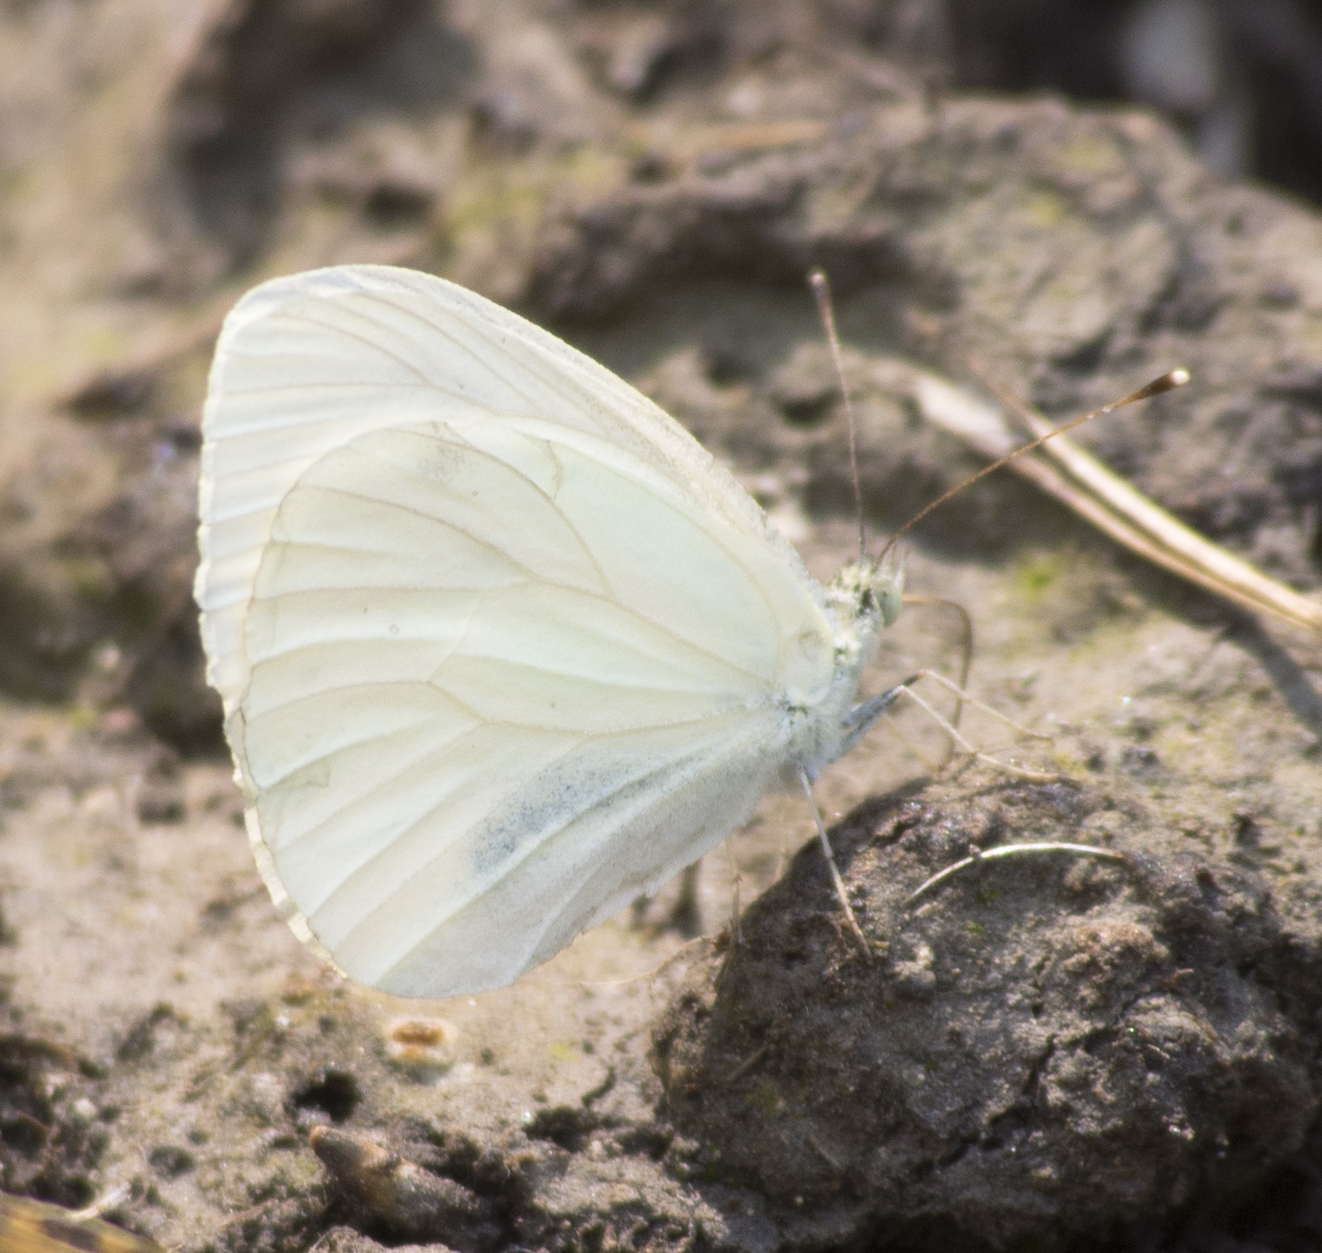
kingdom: Animalia
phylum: Arthropoda
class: Insecta
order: Lepidoptera
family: Pieridae
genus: Pieris
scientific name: Pieris marginalis
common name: Margined white
